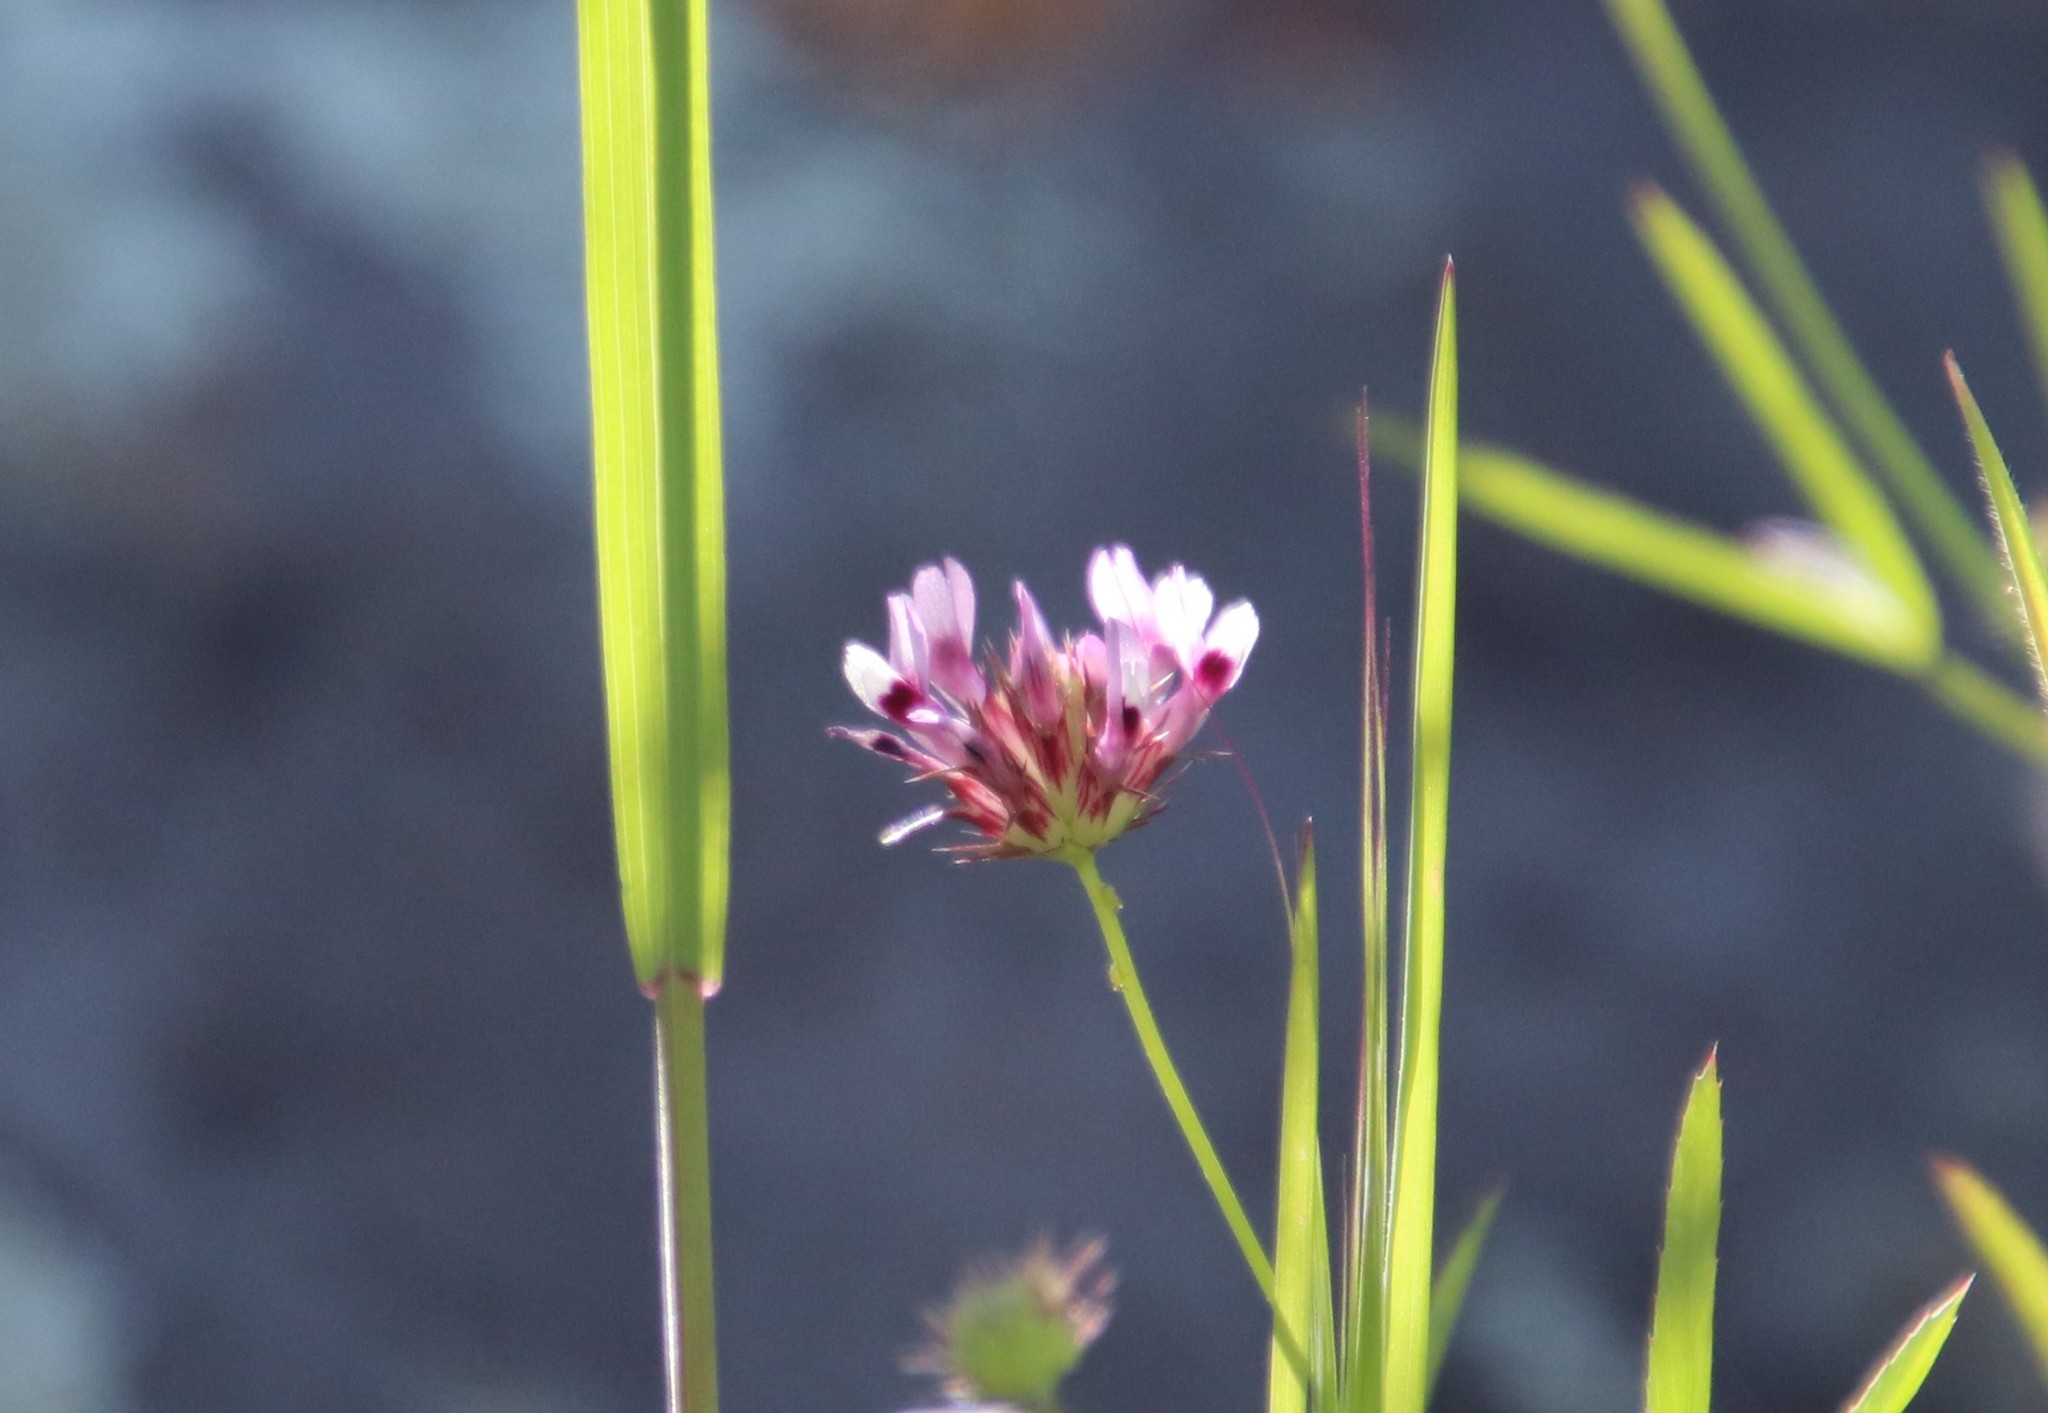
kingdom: Plantae
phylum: Tracheophyta
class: Magnoliopsida
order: Fabales
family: Fabaceae
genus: Trifolium
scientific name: Trifolium willdenovii
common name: Tomcat clover
